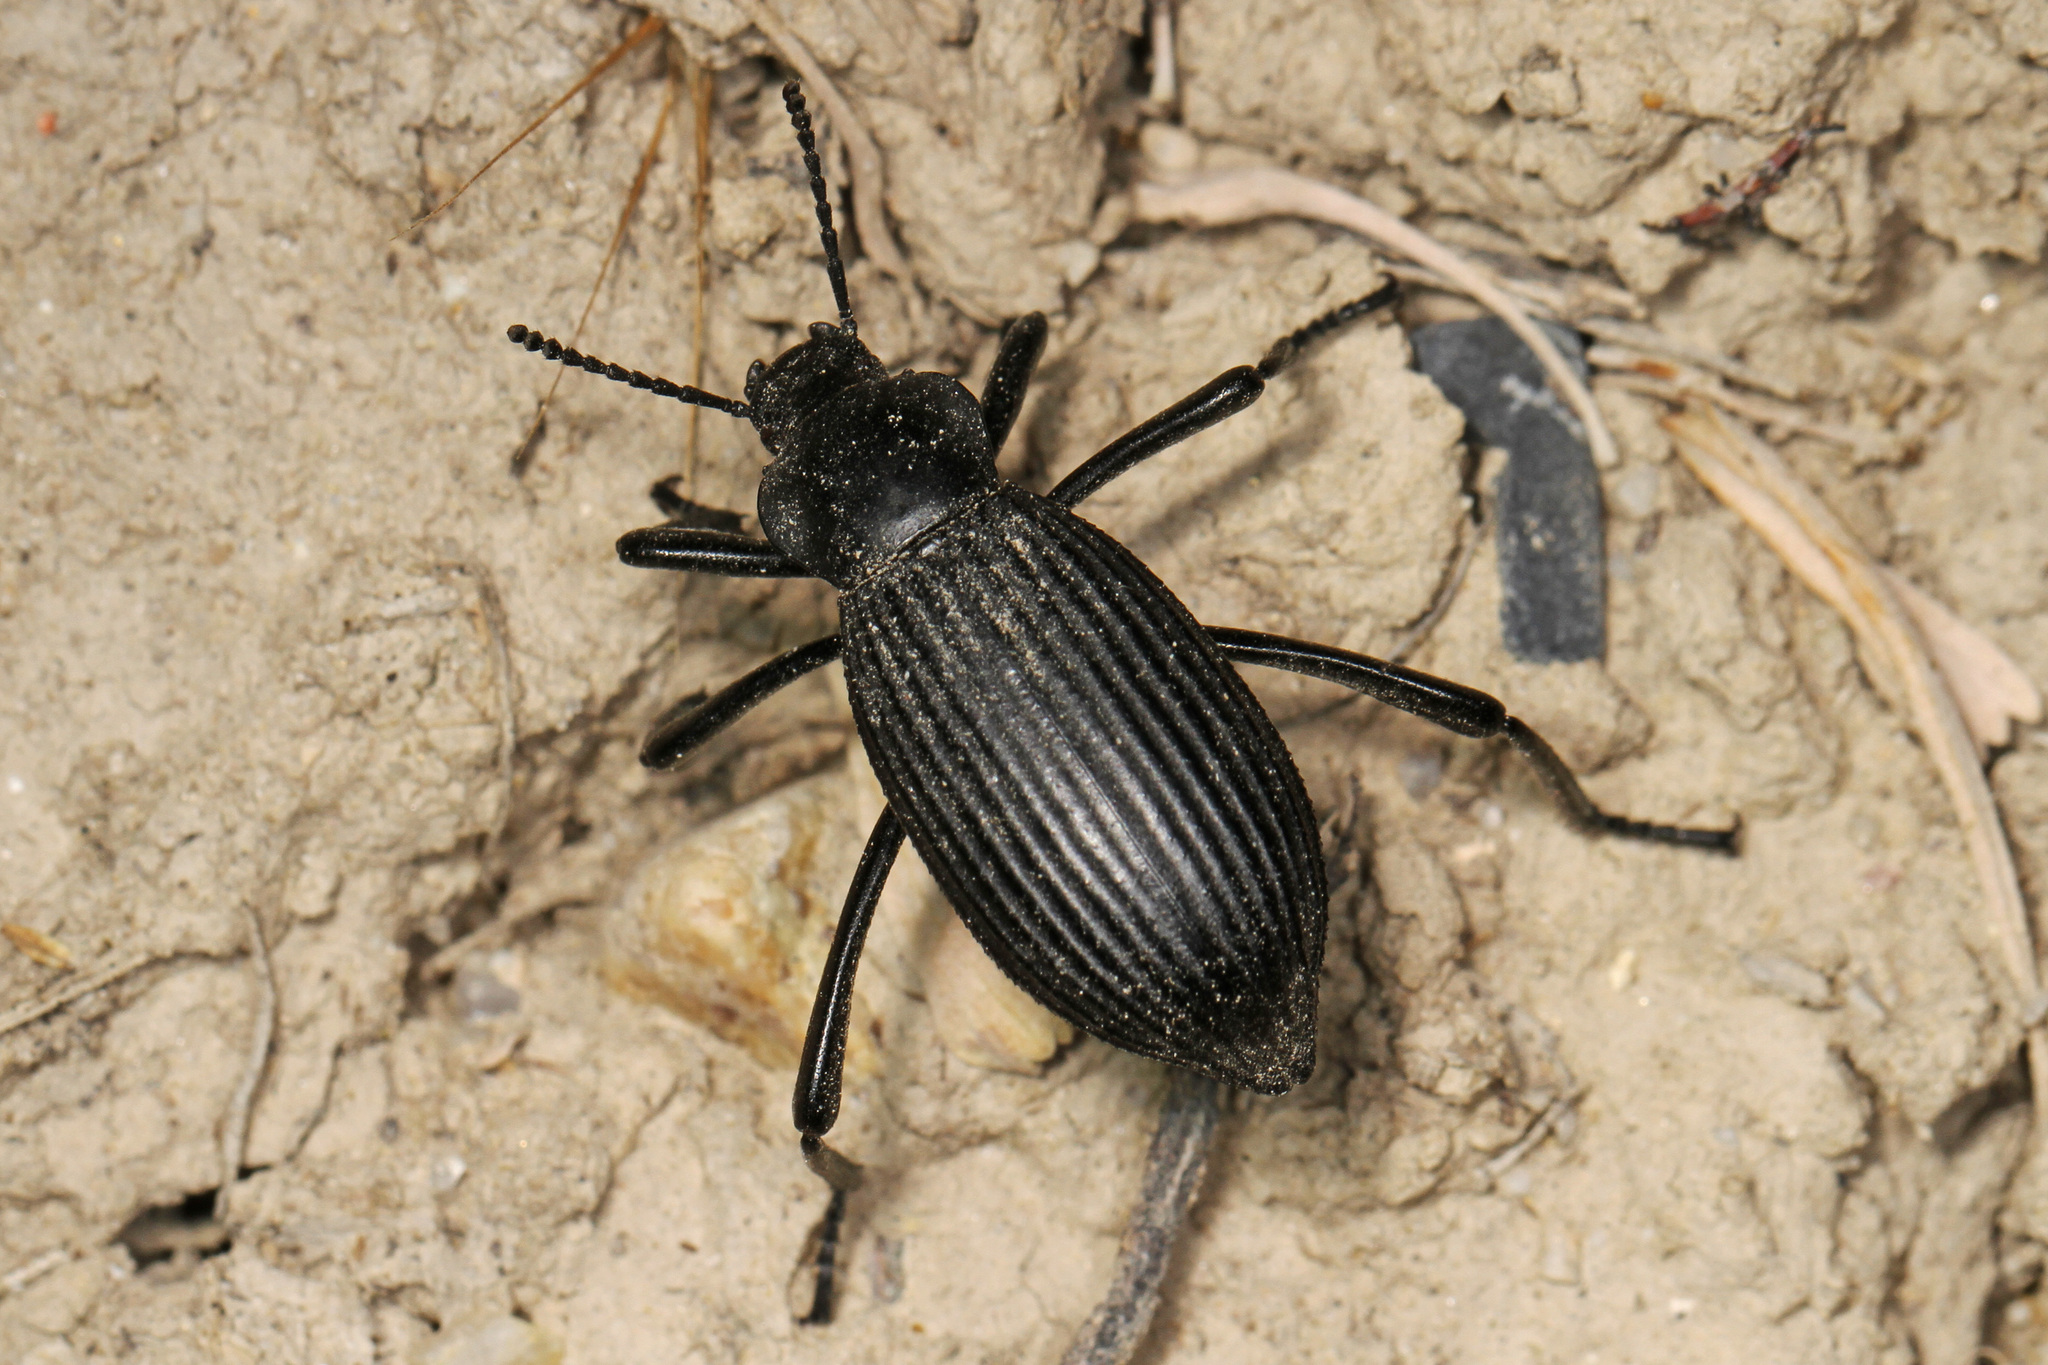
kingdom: Animalia
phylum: Arthropoda
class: Insecta
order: Coleoptera
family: Tenebrionidae
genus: Eleodes
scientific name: Eleodes hispilabris
